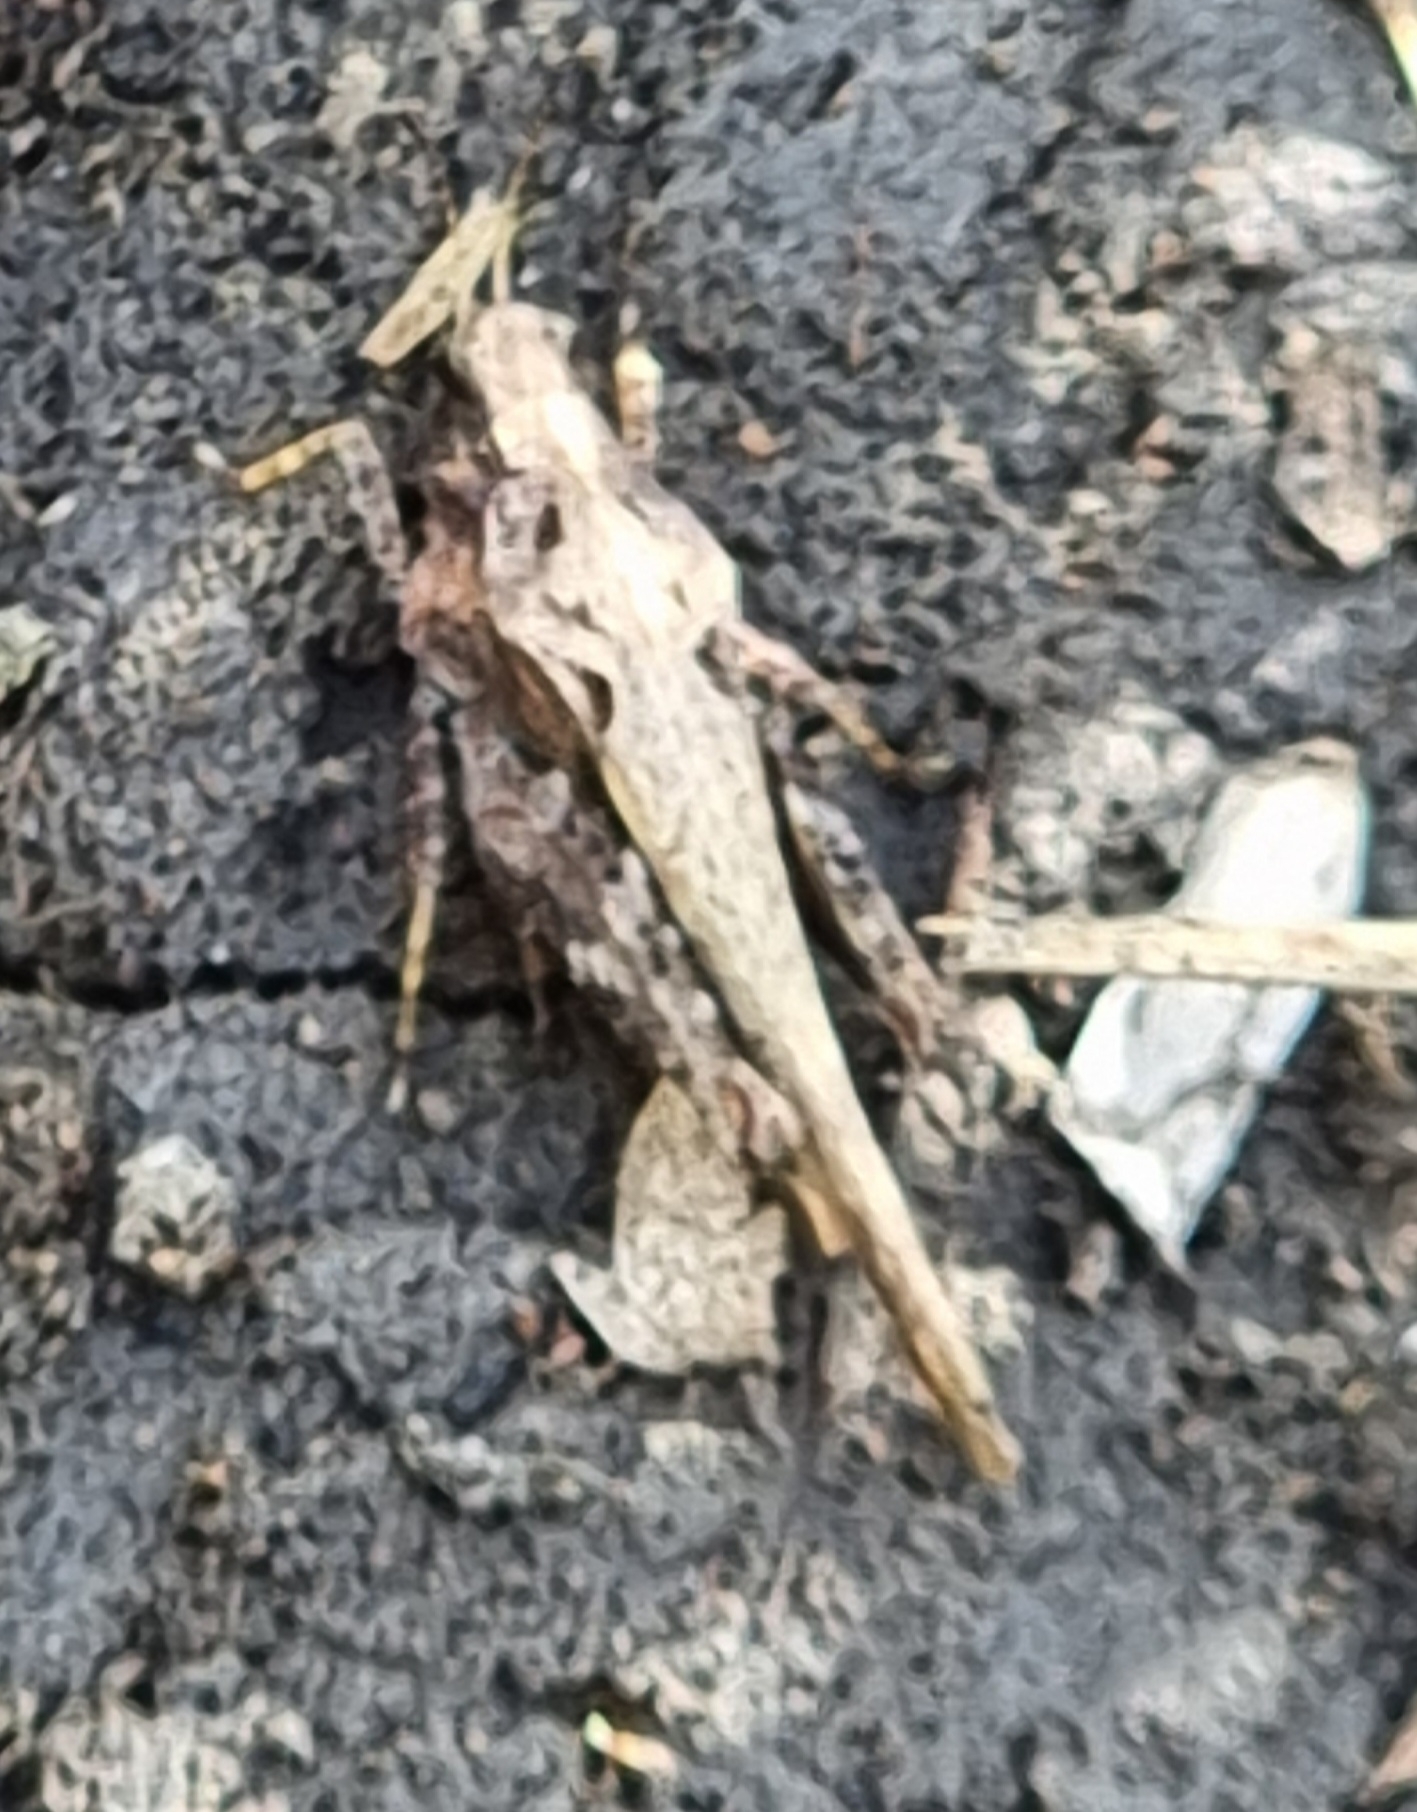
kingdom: Animalia
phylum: Arthropoda
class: Insecta
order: Orthoptera
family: Tetrigidae
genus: Tetrix
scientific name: Tetrix subulata
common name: Slender ground-hopper
